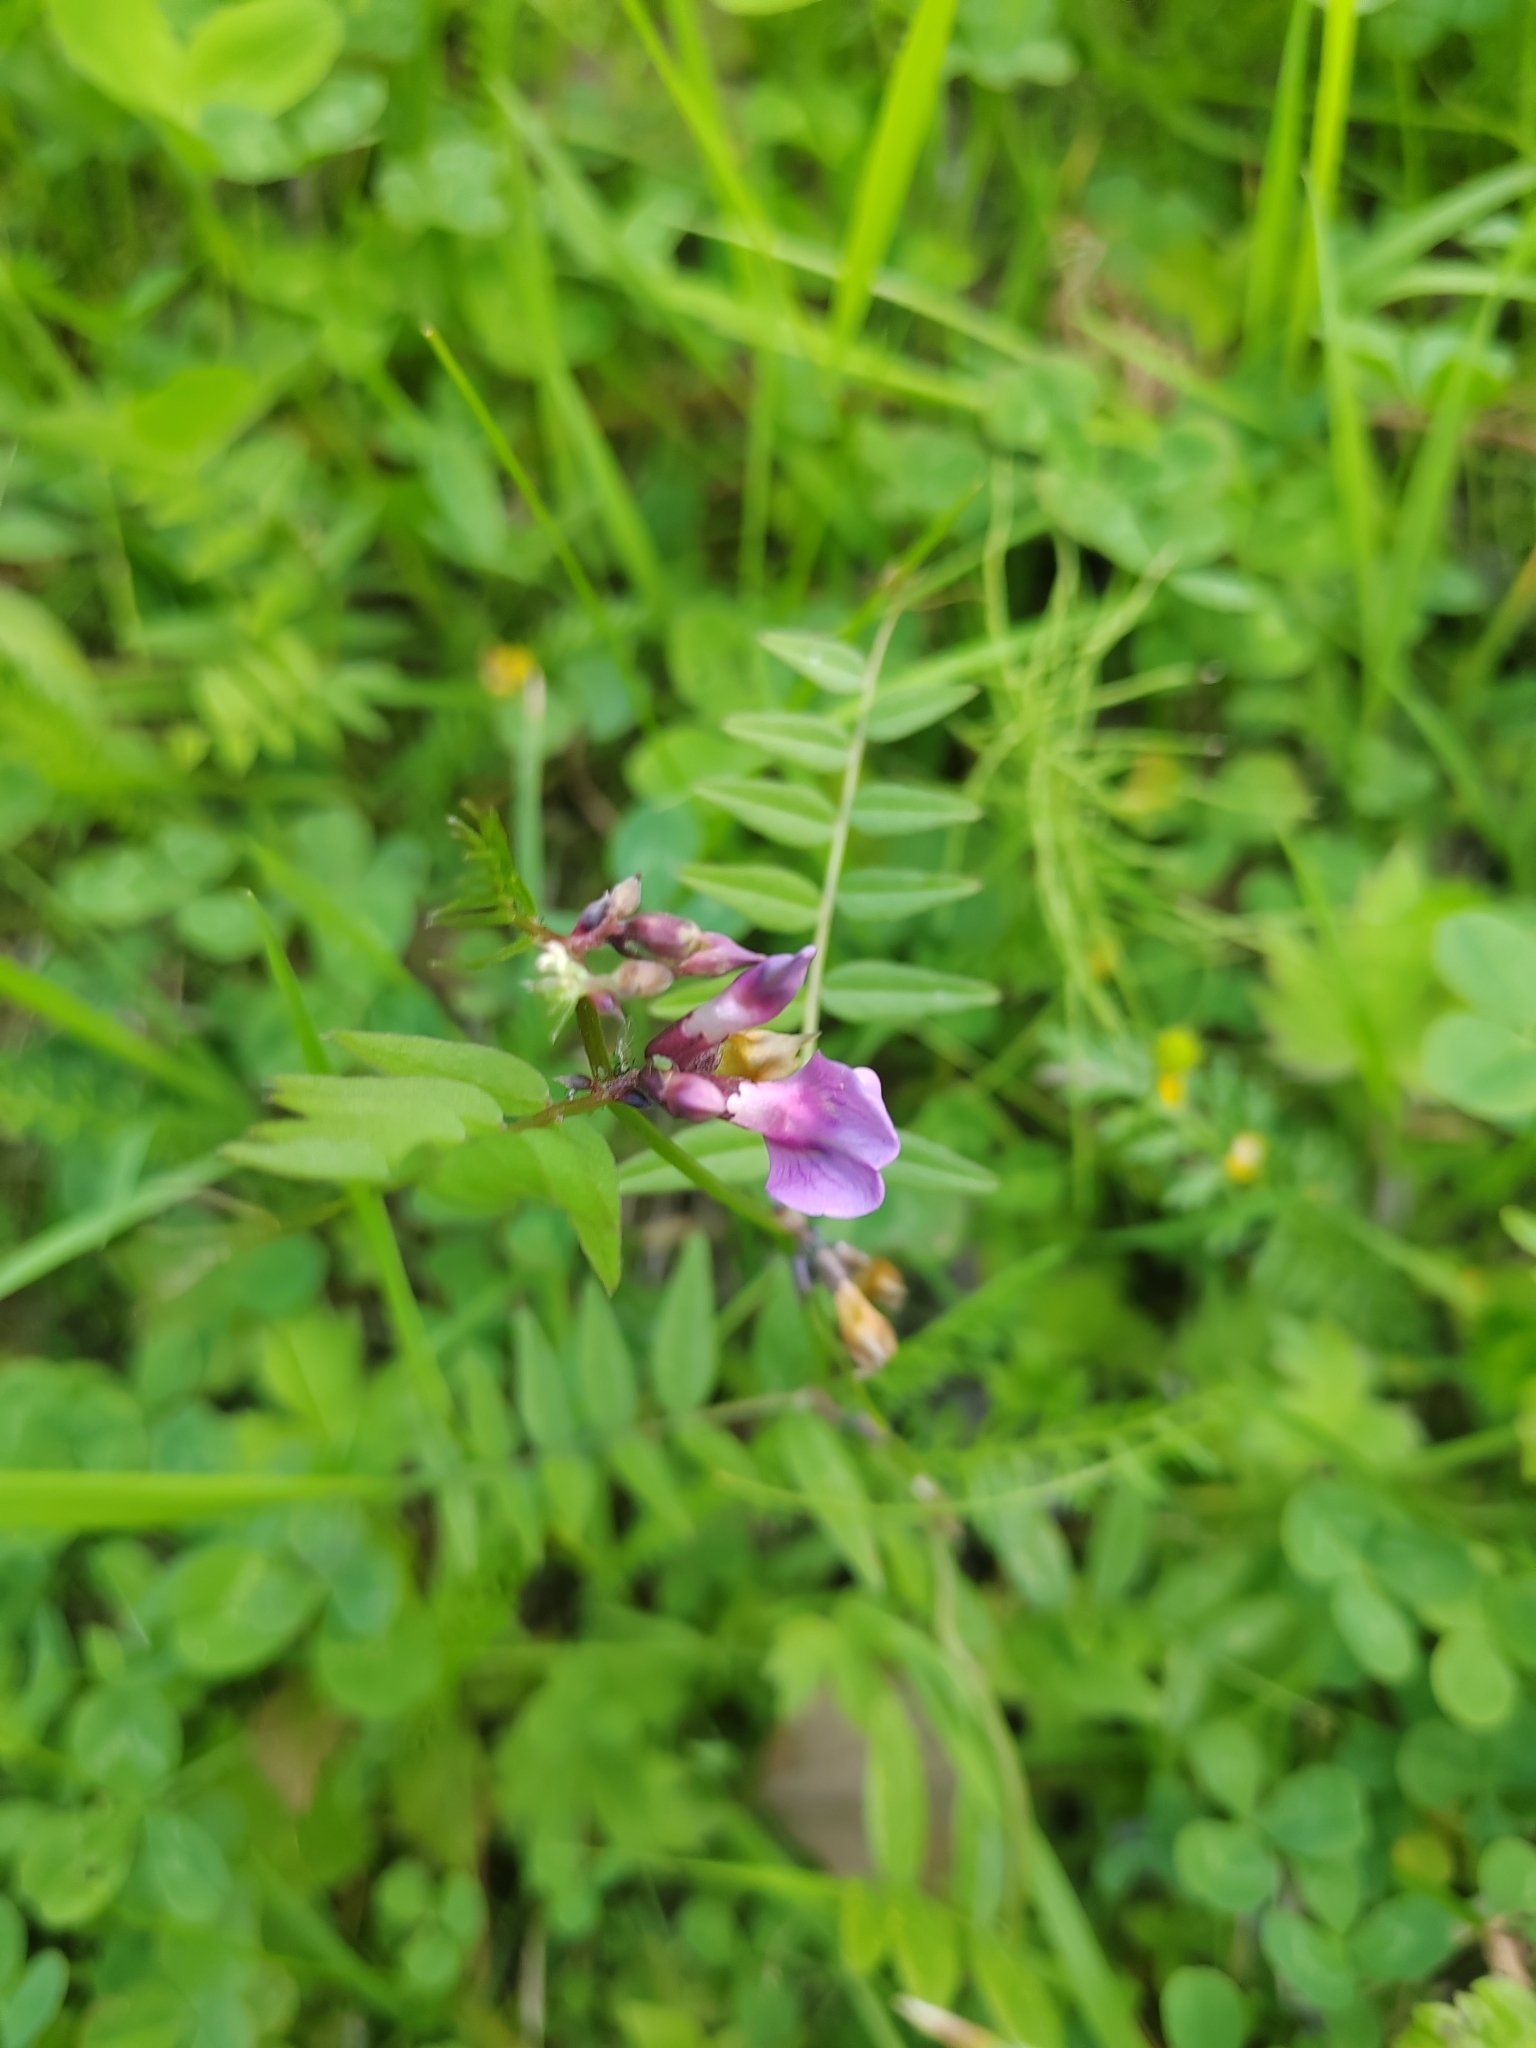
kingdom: Plantae
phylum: Tracheophyta
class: Magnoliopsida
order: Fabales
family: Fabaceae
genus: Vicia
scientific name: Vicia sepium
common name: Bush vetch
